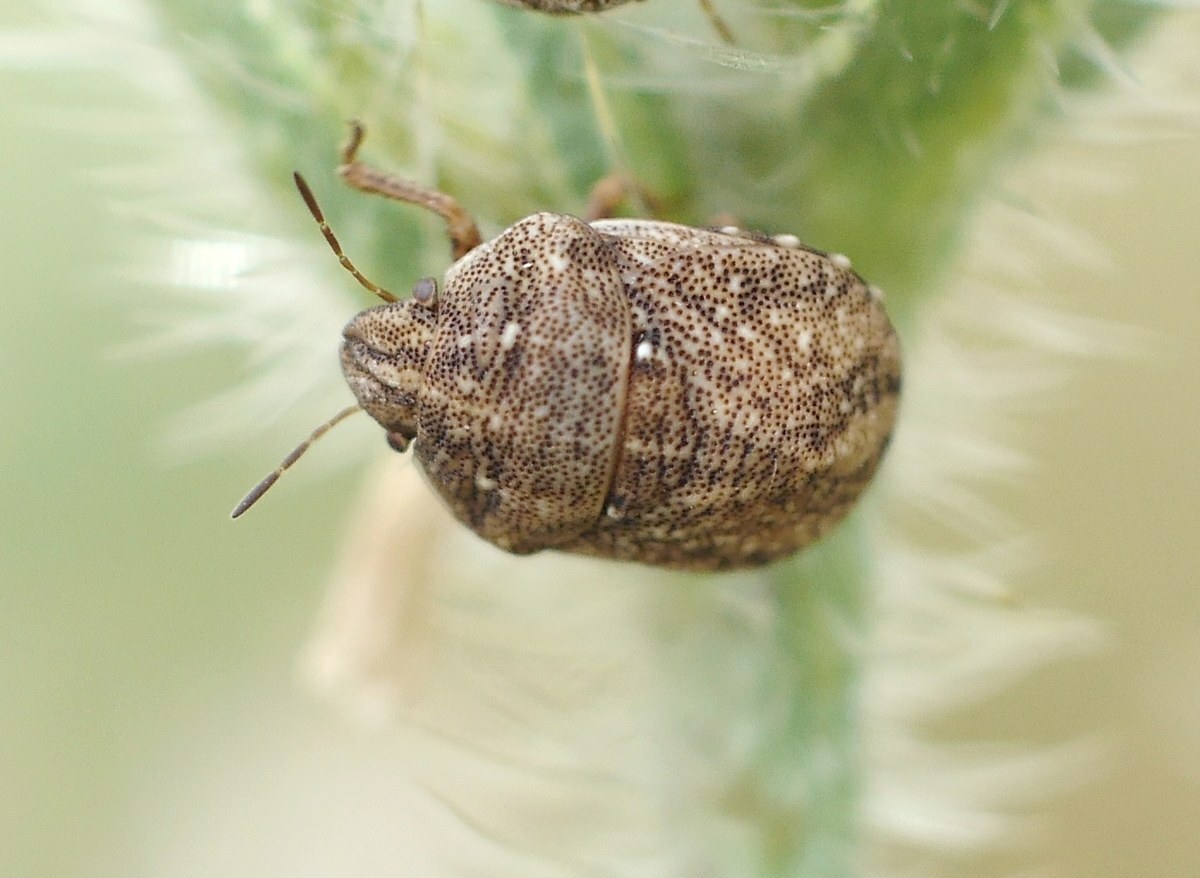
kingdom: Animalia
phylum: Arthropoda
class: Insecta
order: Hemiptera
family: Scutelleridae
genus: Psacasta
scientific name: Psacasta granulata
